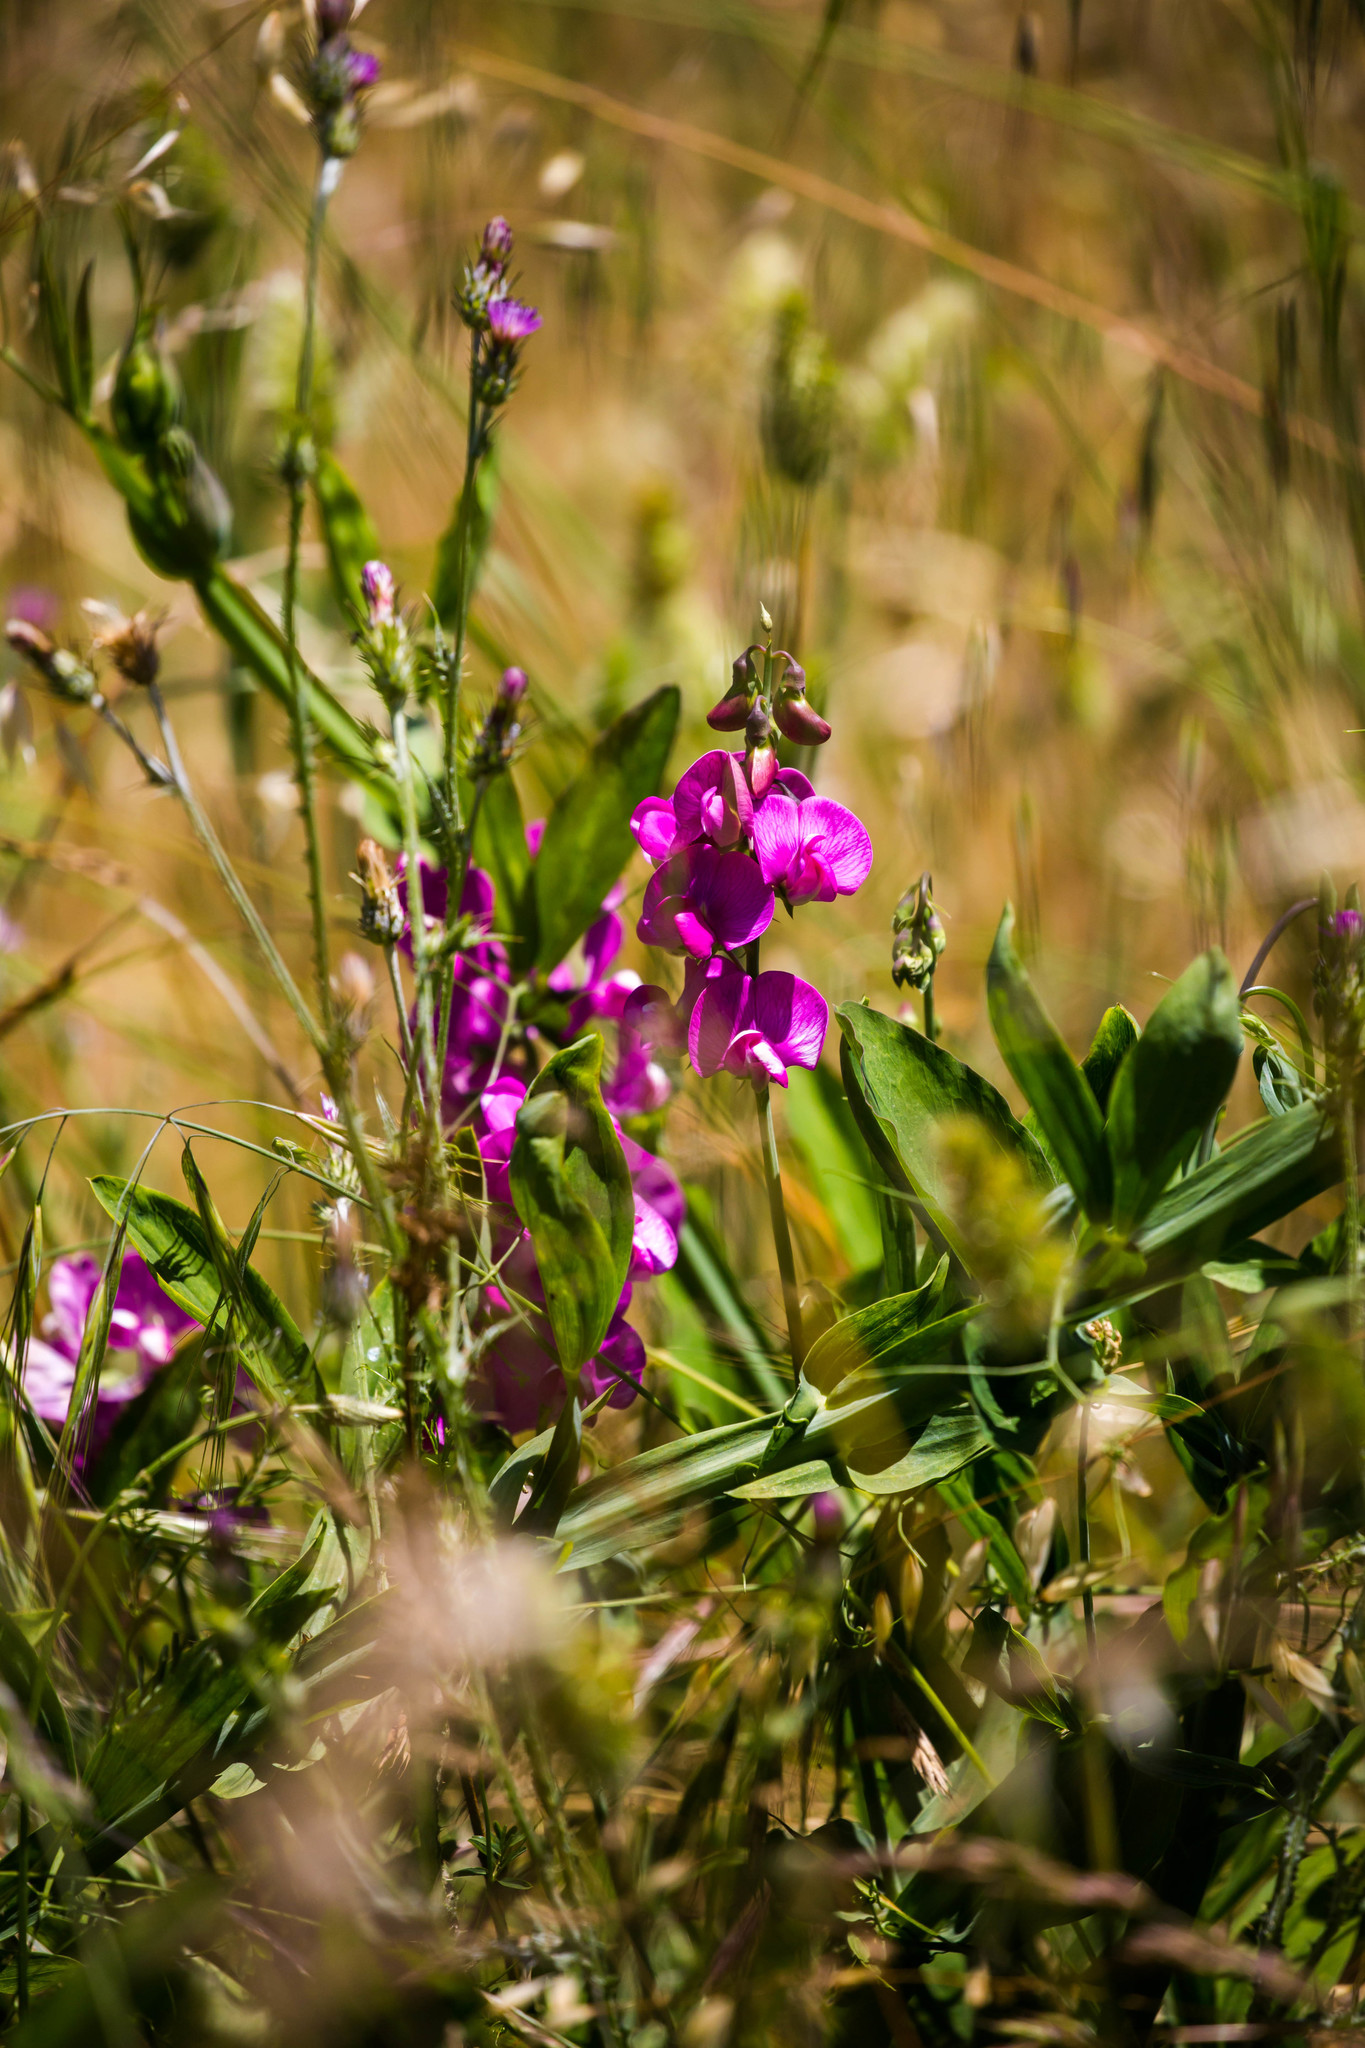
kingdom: Plantae
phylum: Tracheophyta
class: Magnoliopsida
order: Fabales
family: Fabaceae
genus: Lathyrus
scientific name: Lathyrus latifolius
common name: Perennial pea
